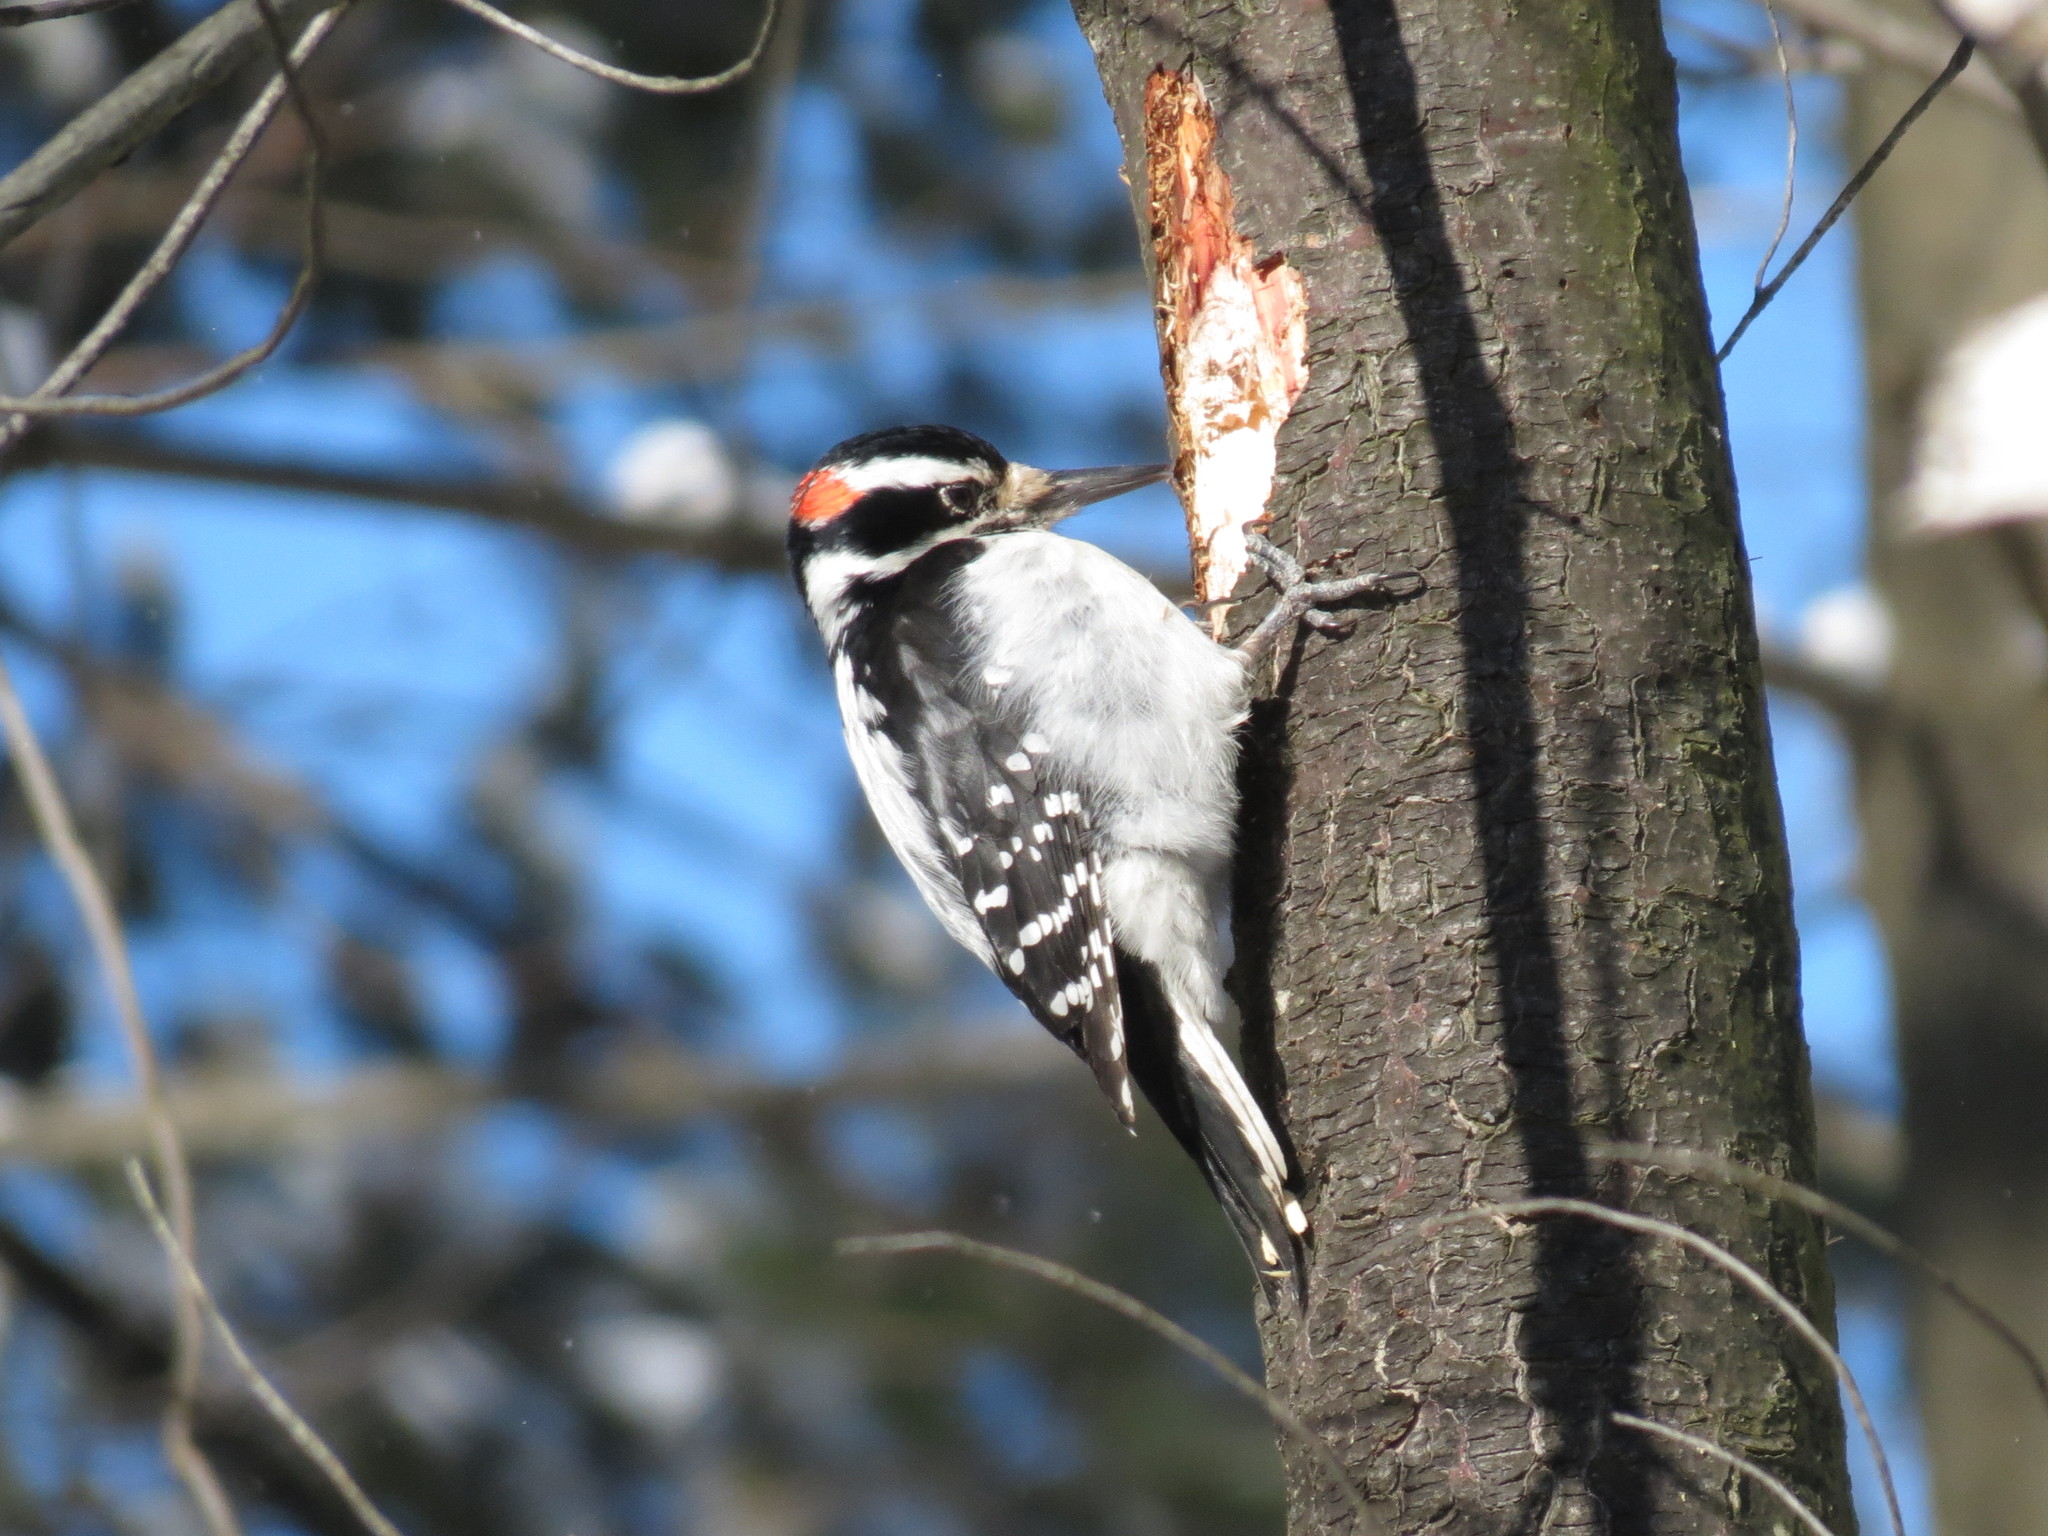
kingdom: Animalia
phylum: Chordata
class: Aves
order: Piciformes
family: Picidae
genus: Leuconotopicus
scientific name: Leuconotopicus villosus
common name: Hairy woodpecker
